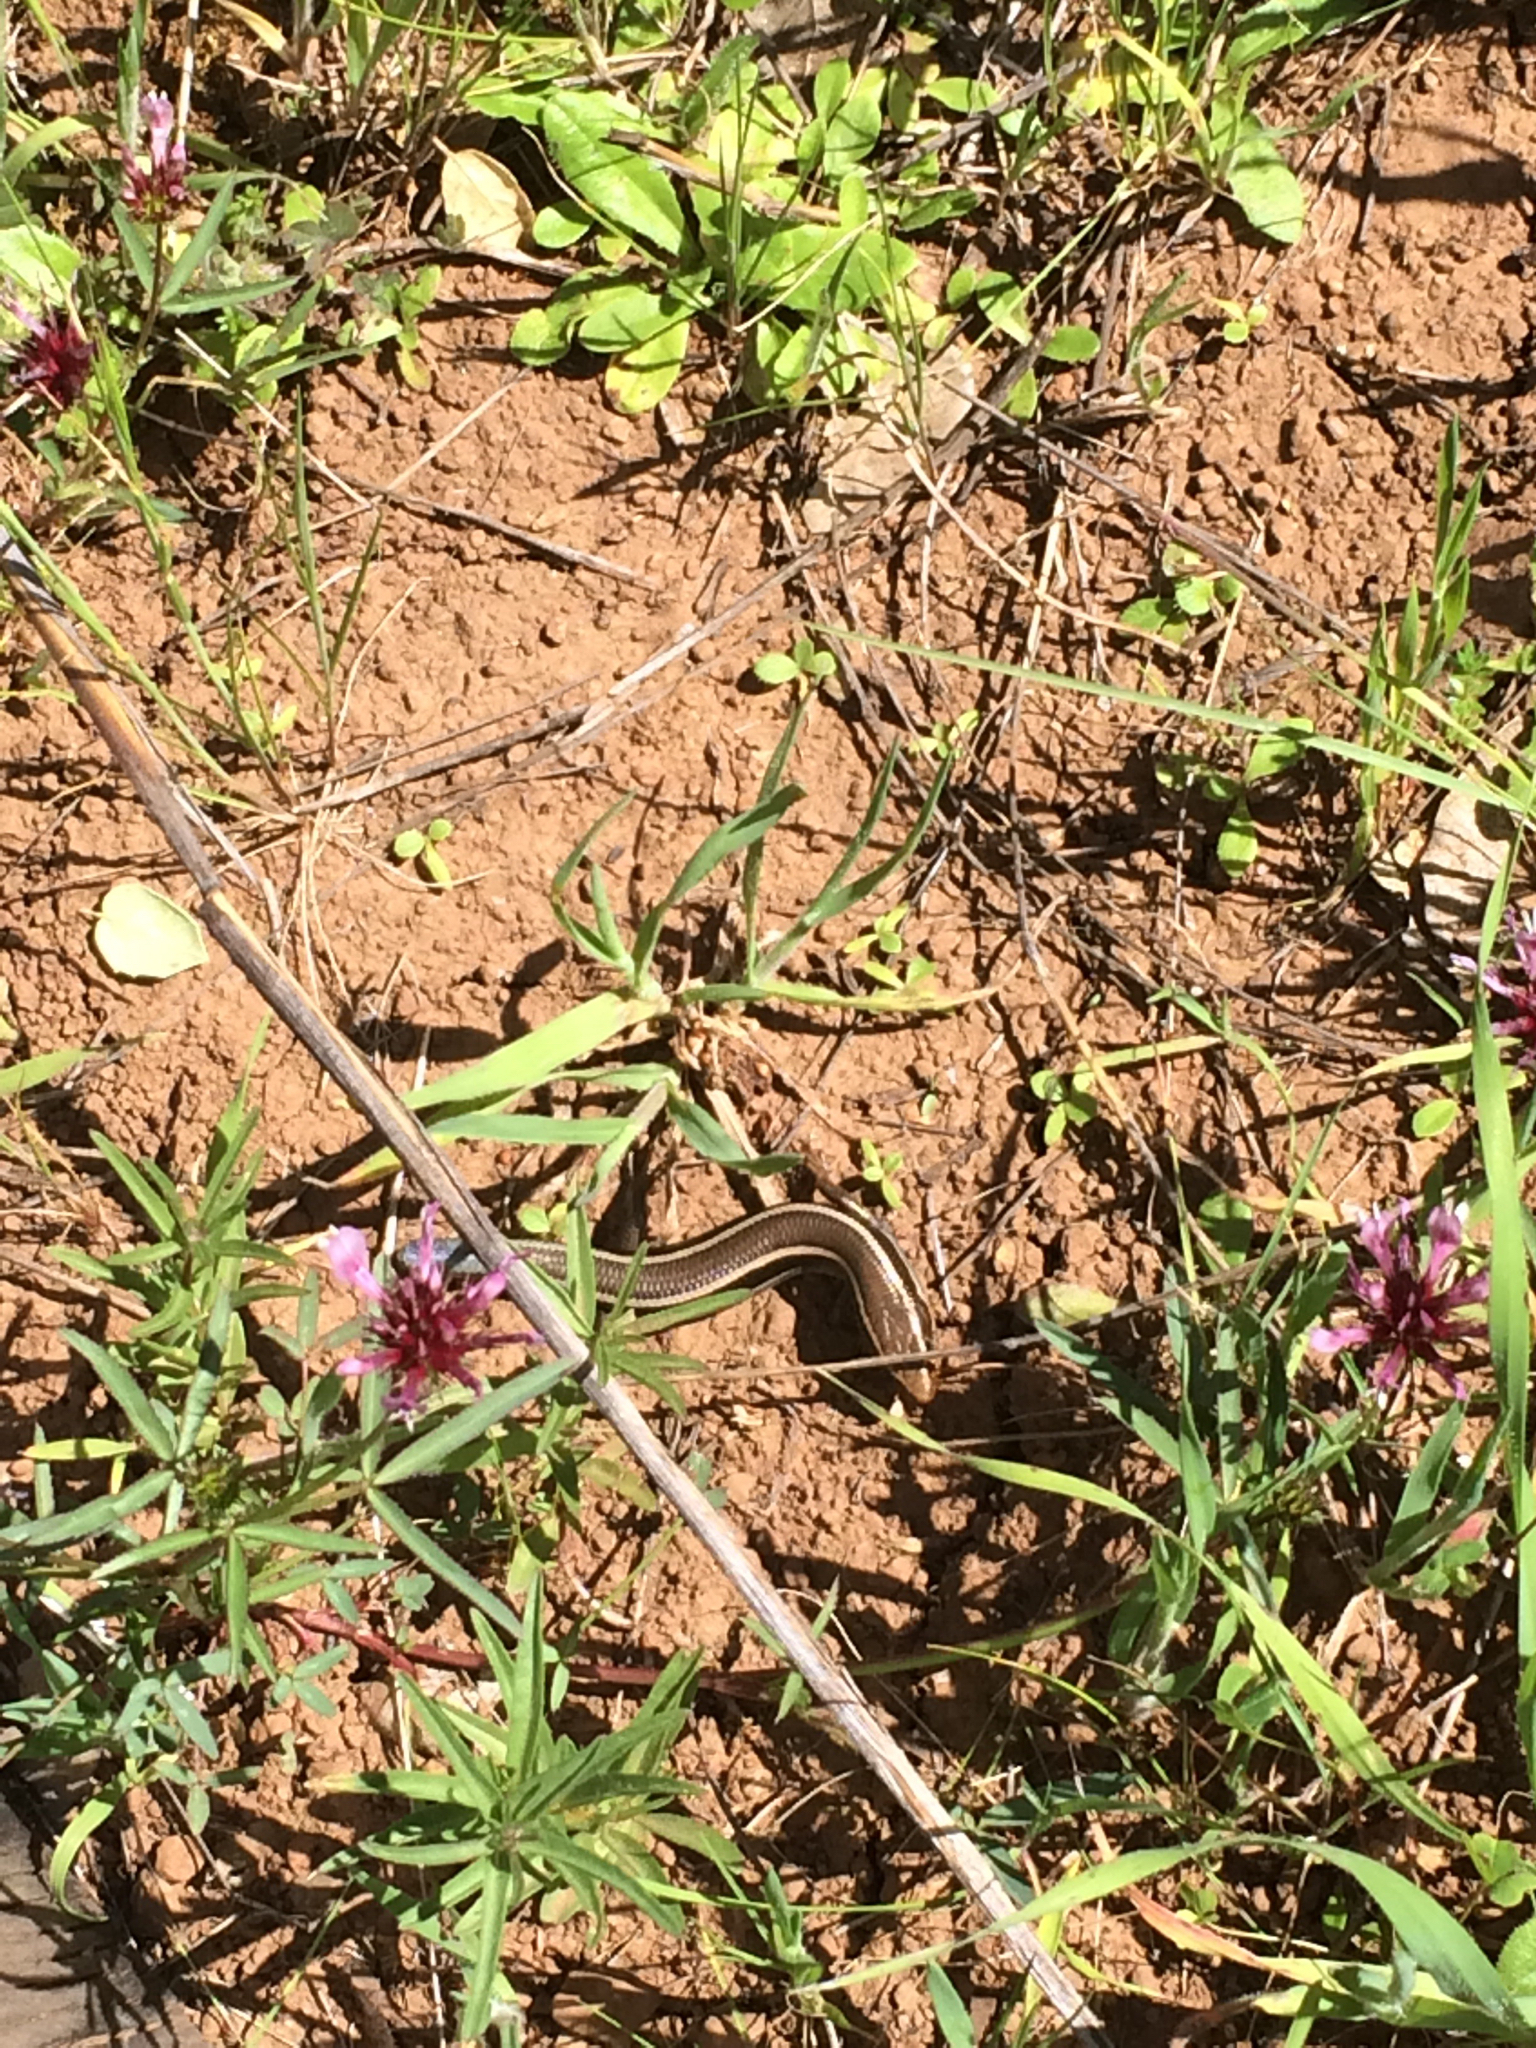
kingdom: Animalia
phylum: Chordata
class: Squamata
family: Scincidae
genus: Plestiodon
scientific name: Plestiodon skiltonianus
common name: Coronado island skink [interparietalis]
